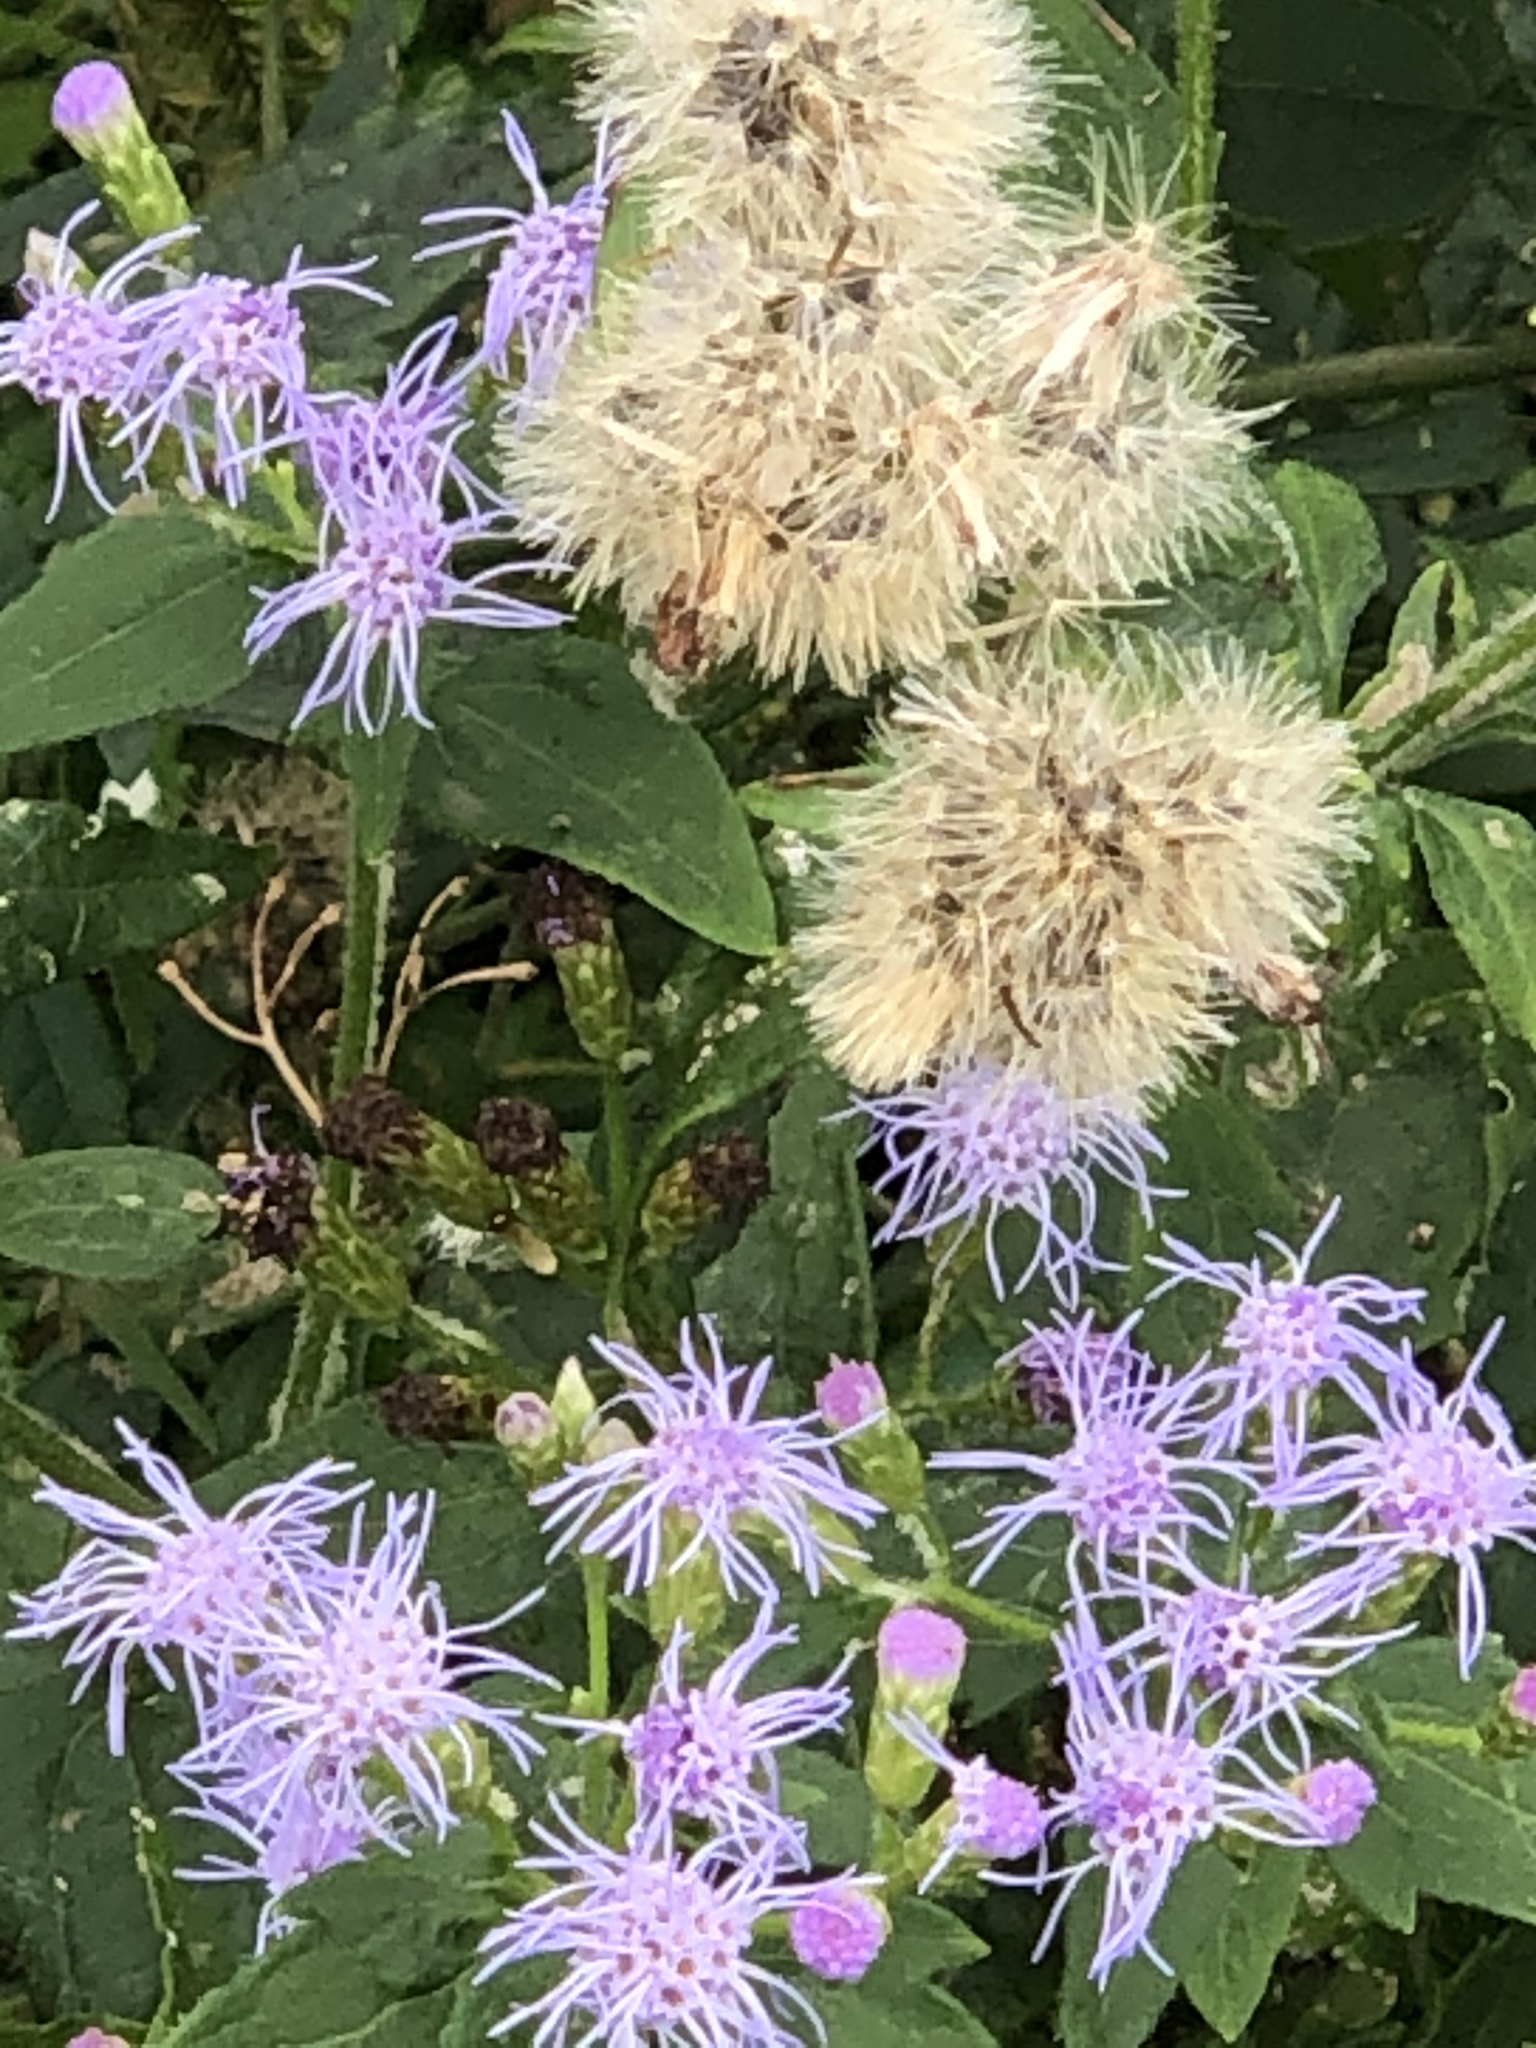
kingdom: Plantae
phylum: Tracheophyta
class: Magnoliopsida
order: Asterales
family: Asteraceae
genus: Chromolaena
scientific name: Chromolaena odorata
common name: Siamweed
